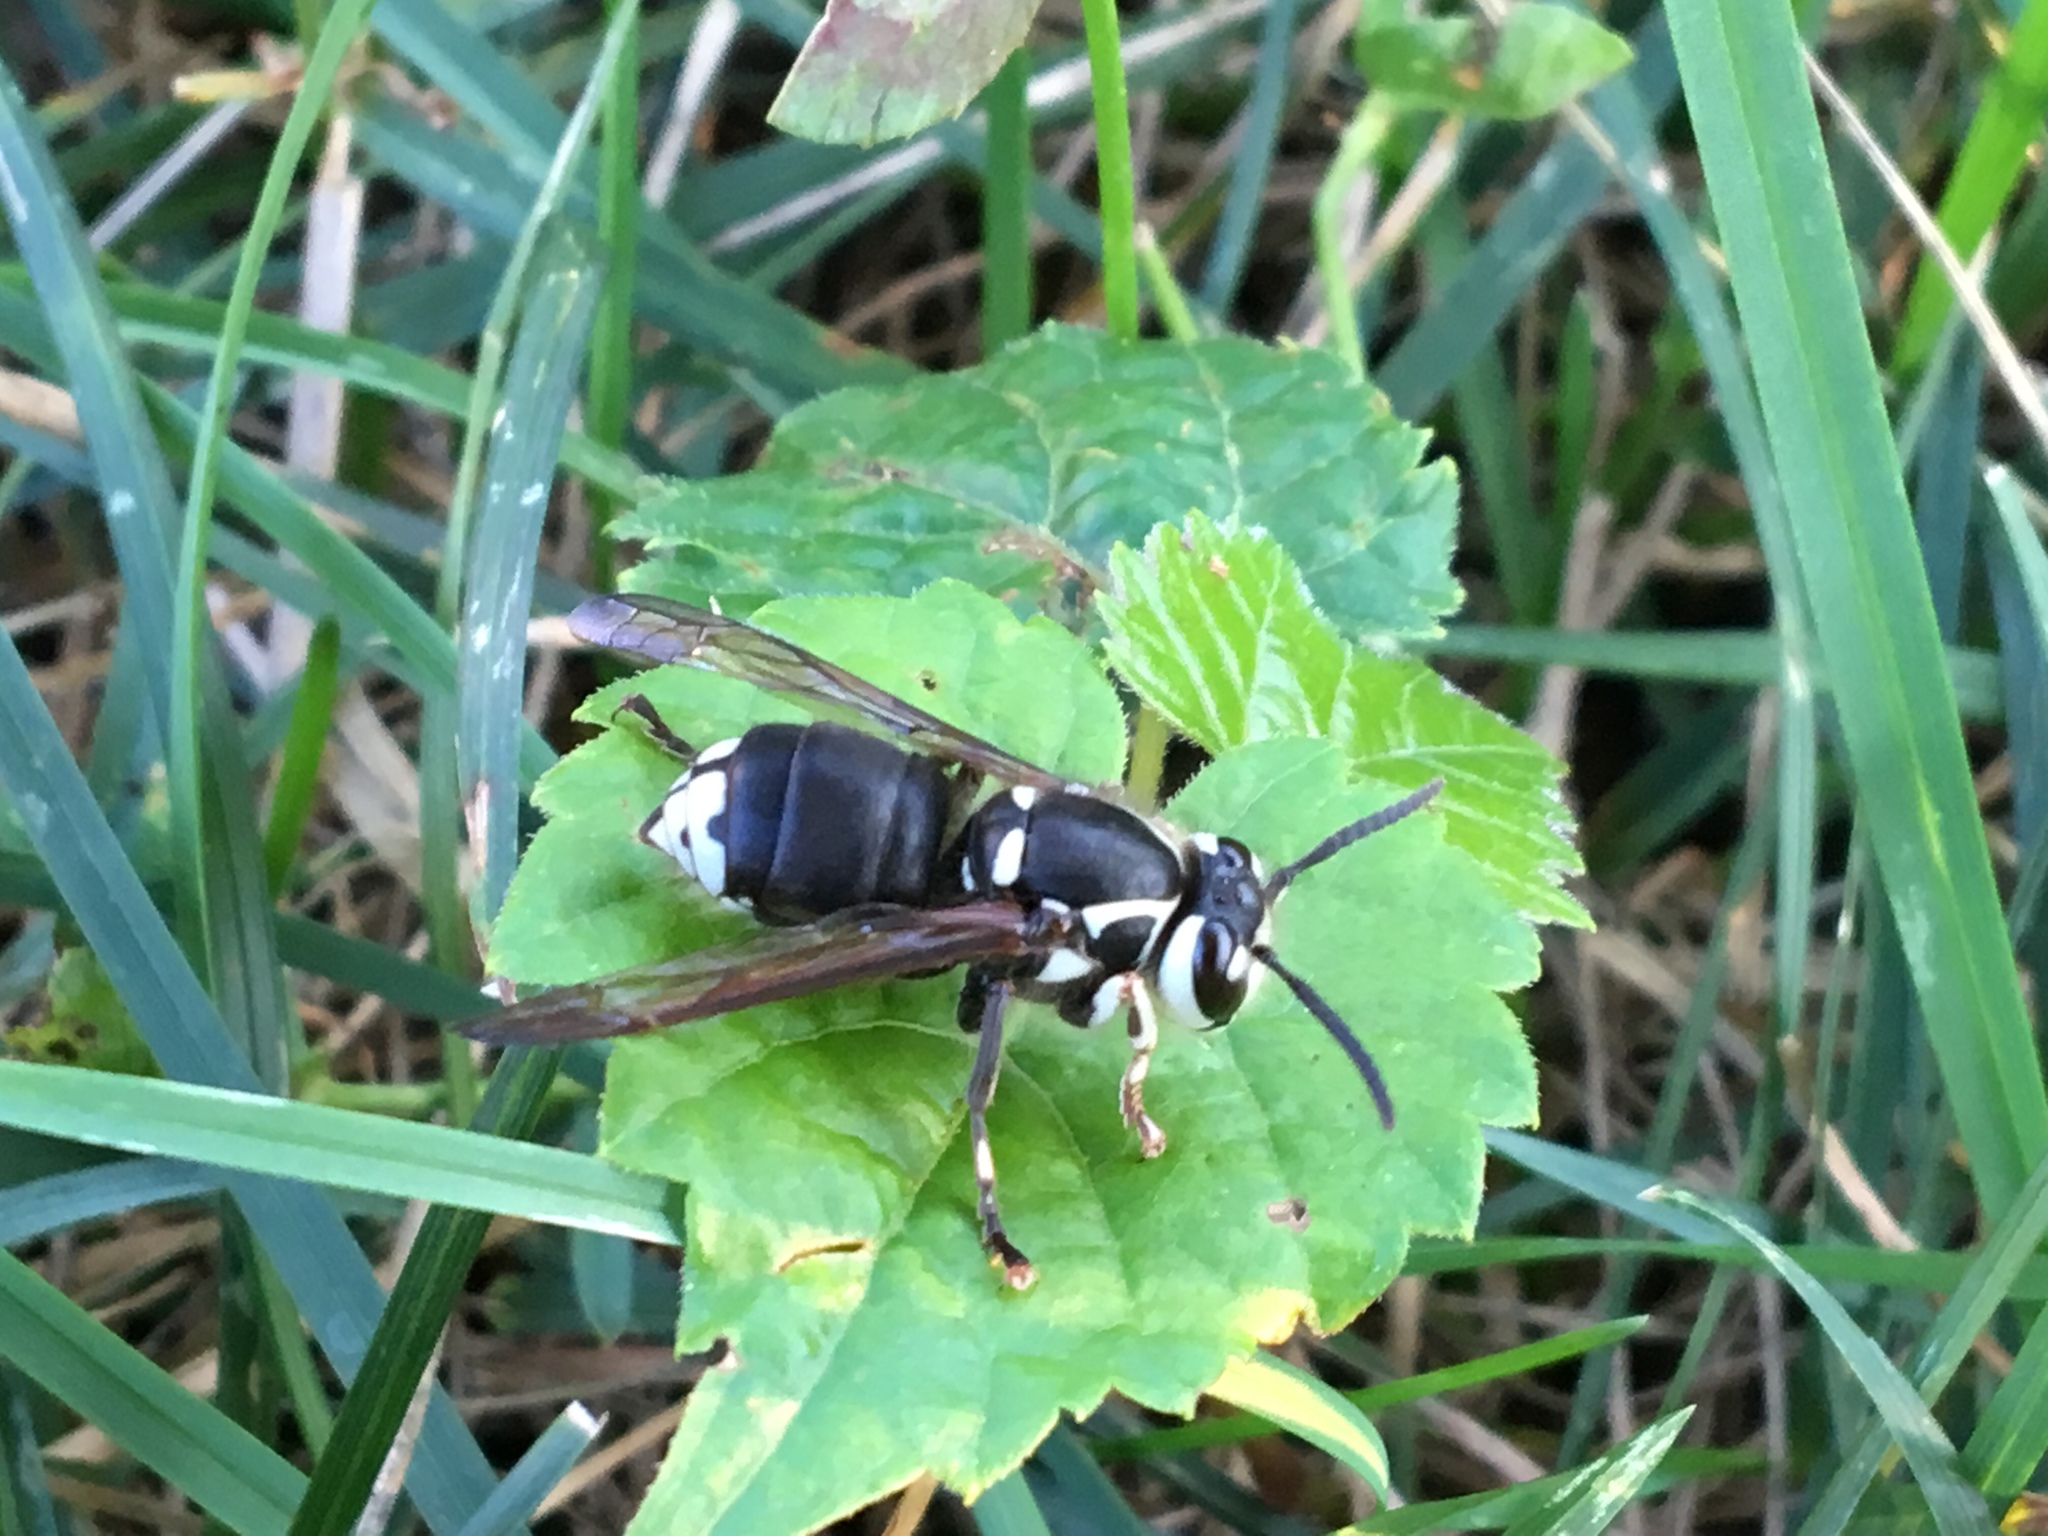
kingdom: Animalia
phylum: Arthropoda
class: Insecta
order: Hymenoptera
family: Vespidae
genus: Dolichovespula
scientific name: Dolichovespula maculata
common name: Bald-faced hornet
